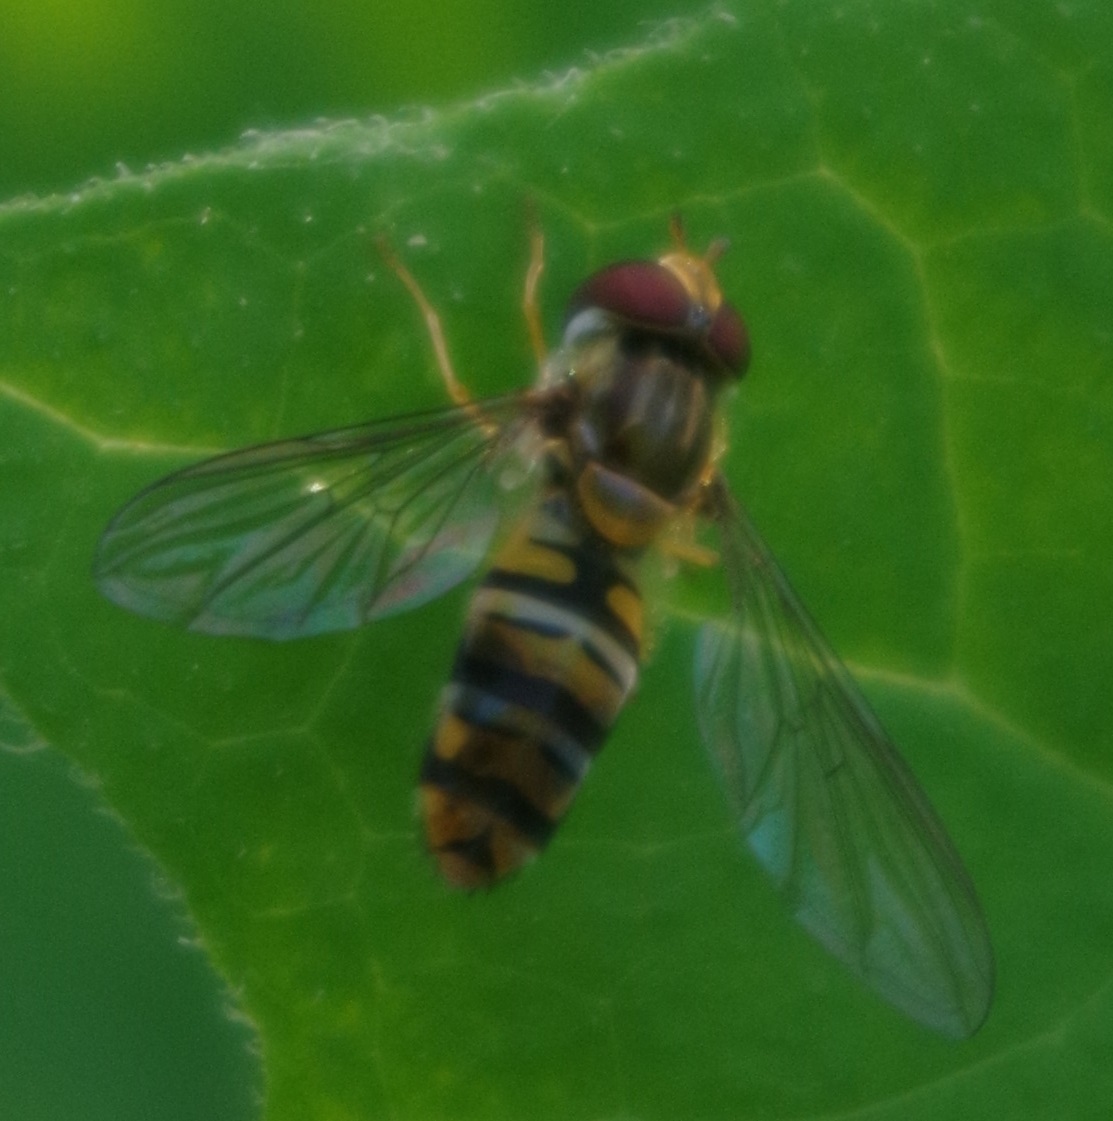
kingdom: Animalia
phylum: Arthropoda
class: Insecta
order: Diptera
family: Syrphidae
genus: Episyrphus
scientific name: Episyrphus balteatus
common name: Marmalade hoverfly
